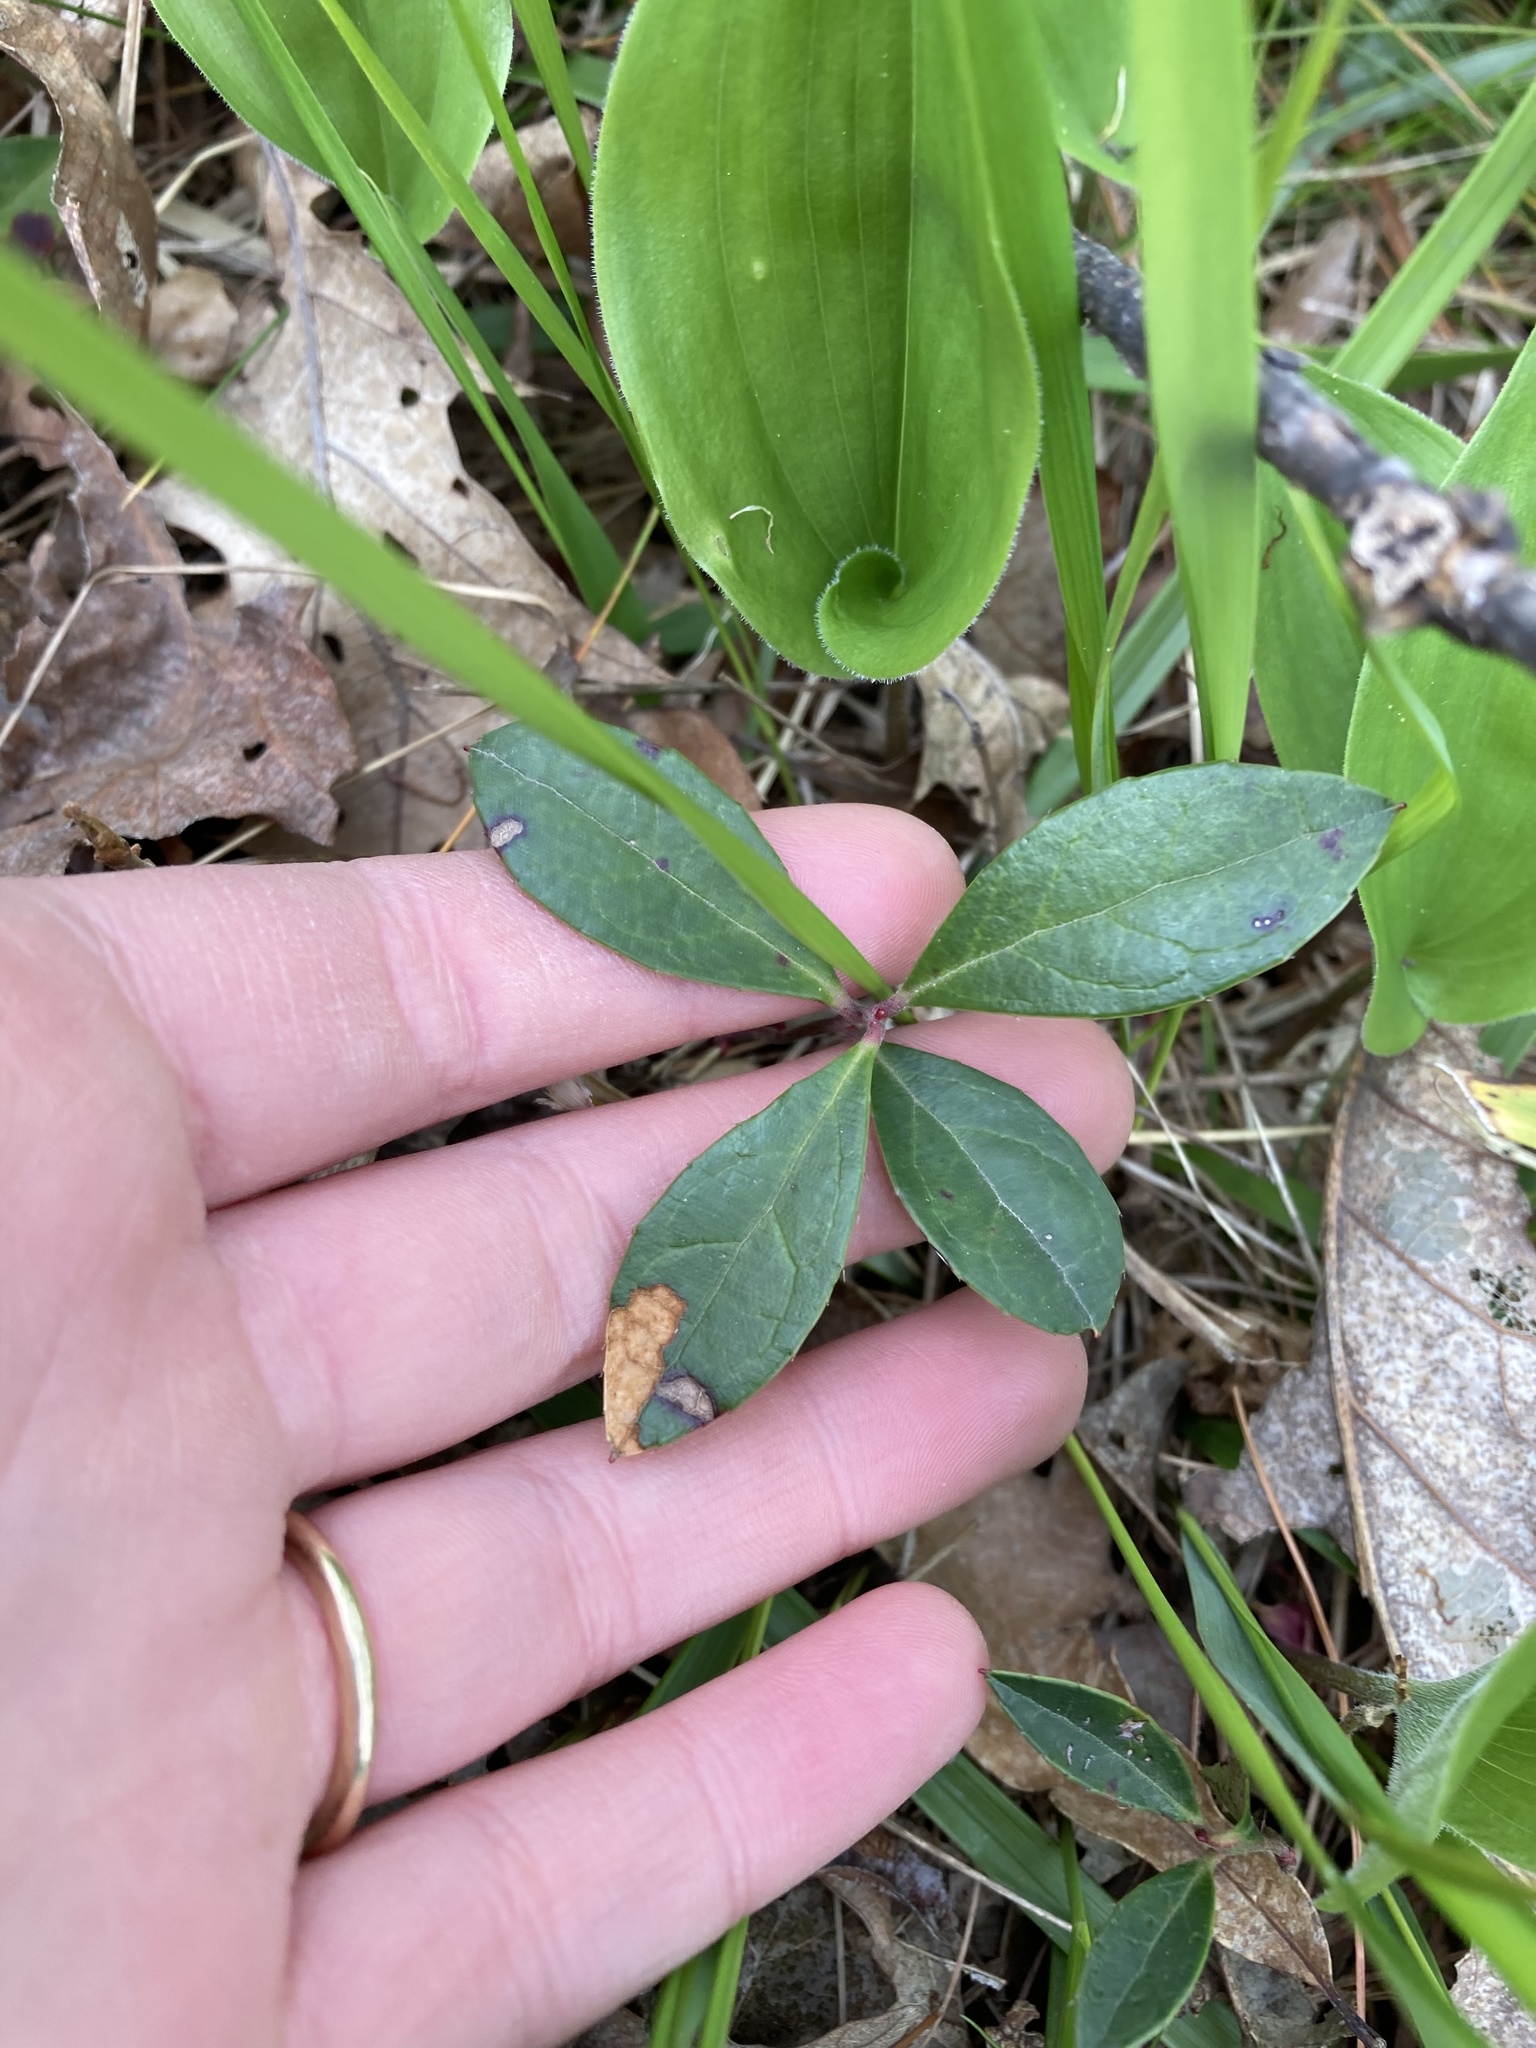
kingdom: Plantae
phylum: Tracheophyta
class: Magnoliopsida
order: Ericales
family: Ericaceae
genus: Gaultheria
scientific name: Gaultheria procumbens
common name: Checkerberry
